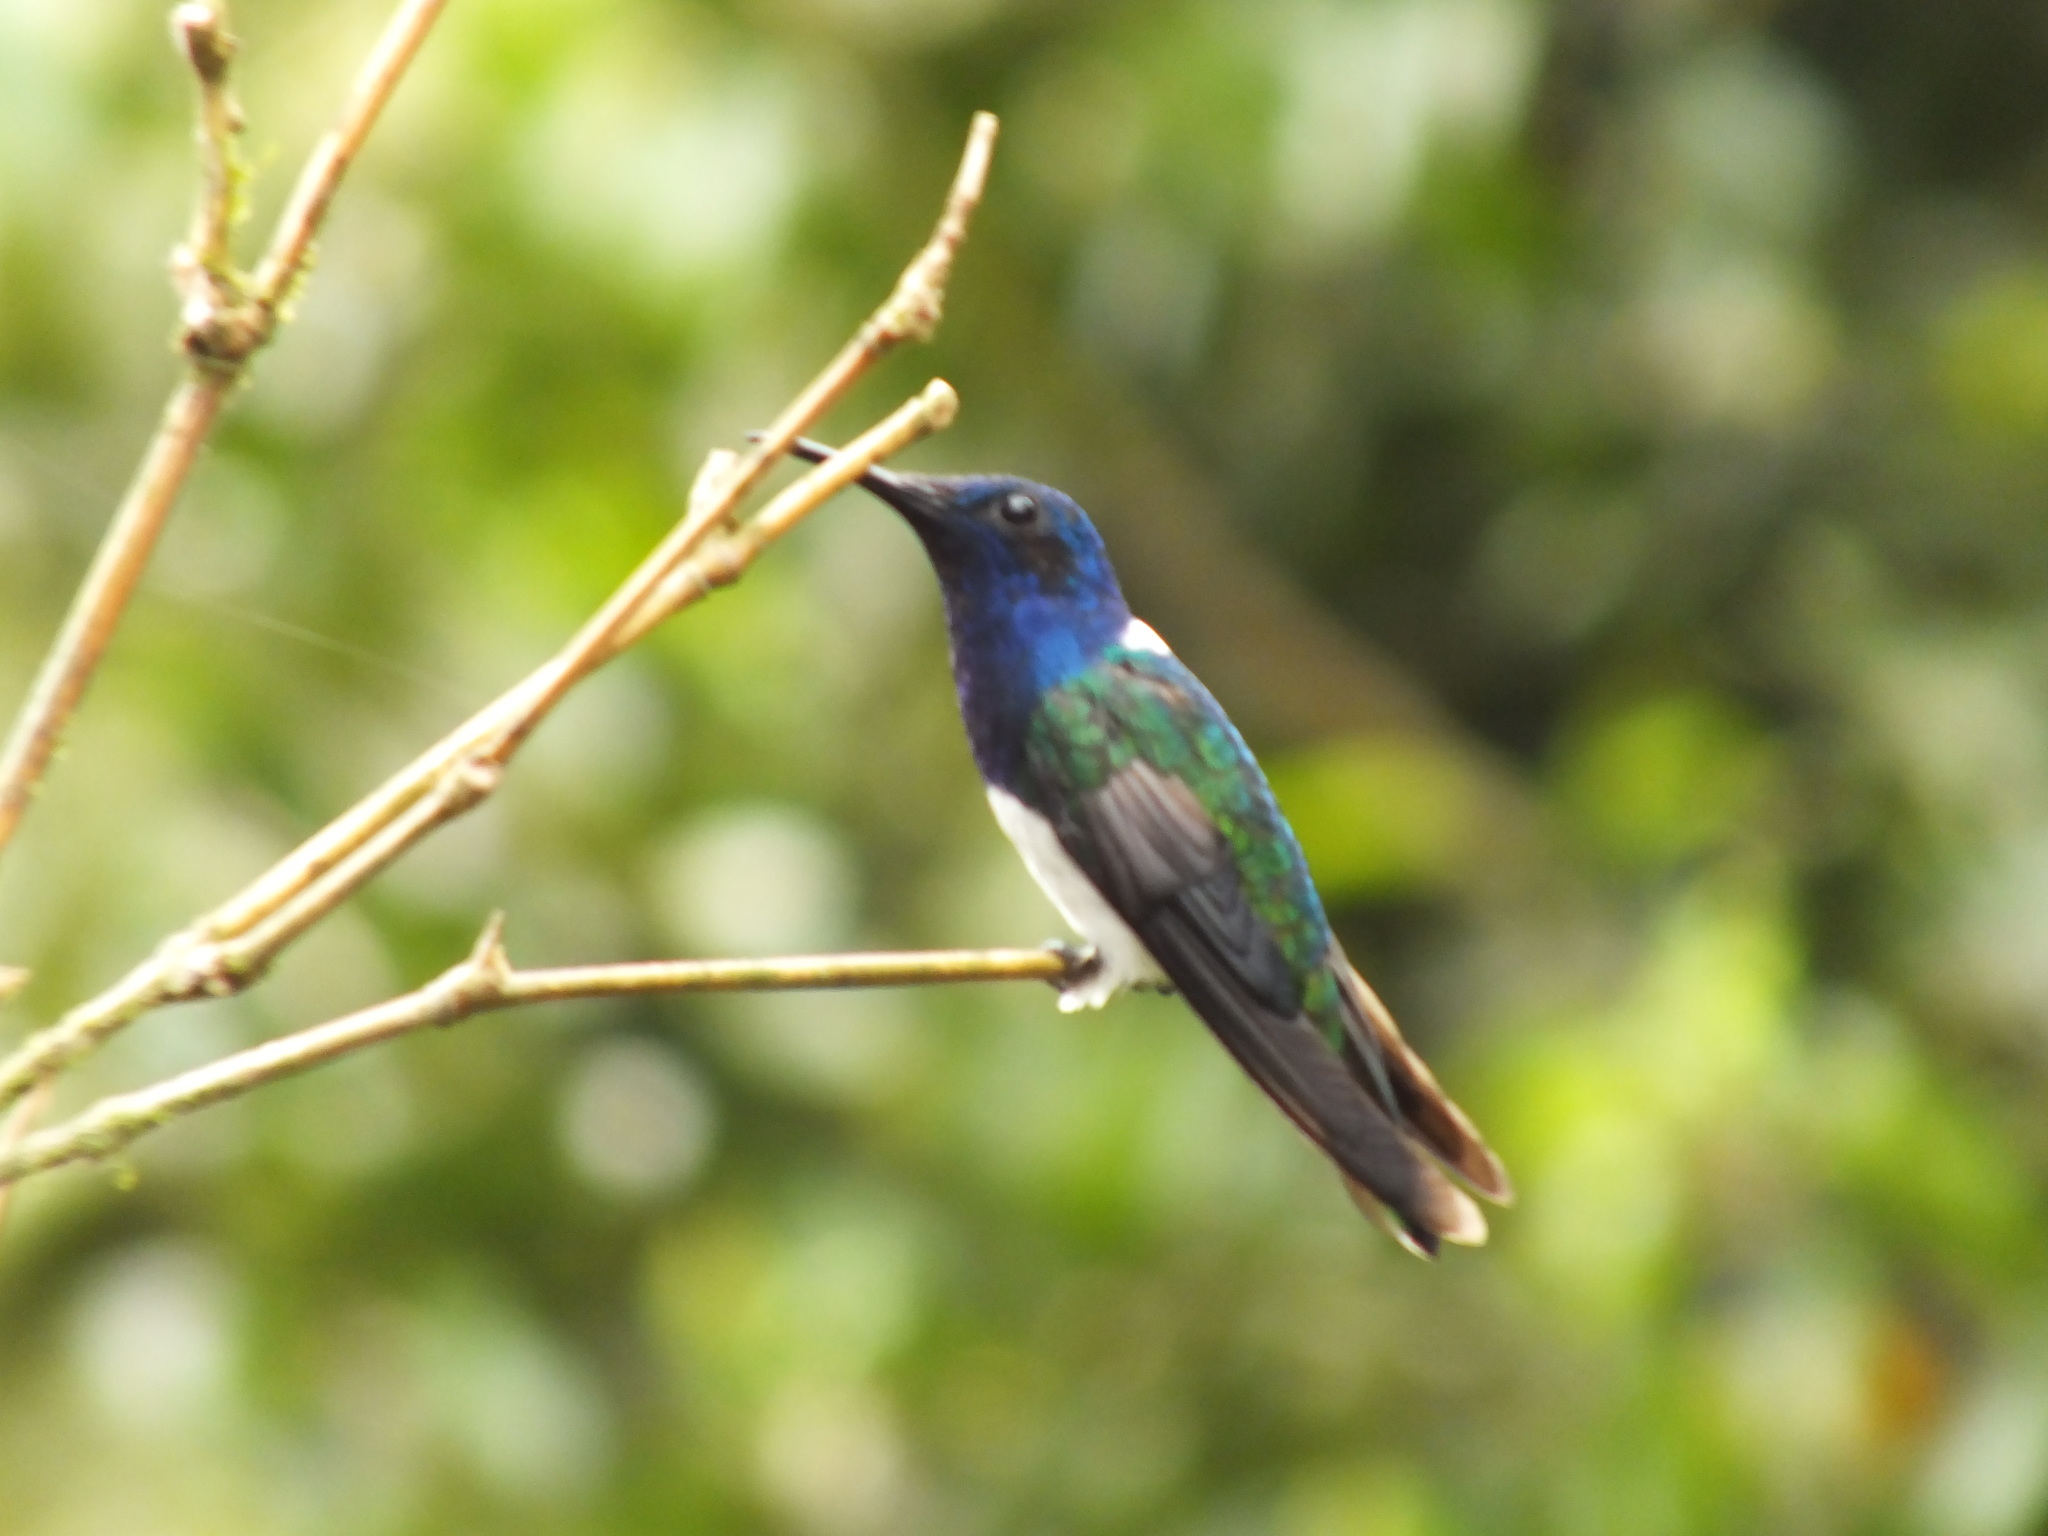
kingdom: Animalia
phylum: Chordata
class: Aves
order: Apodiformes
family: Trochilidae
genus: Florisuga
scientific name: Florisuga mellivora
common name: White-necked jacobin
